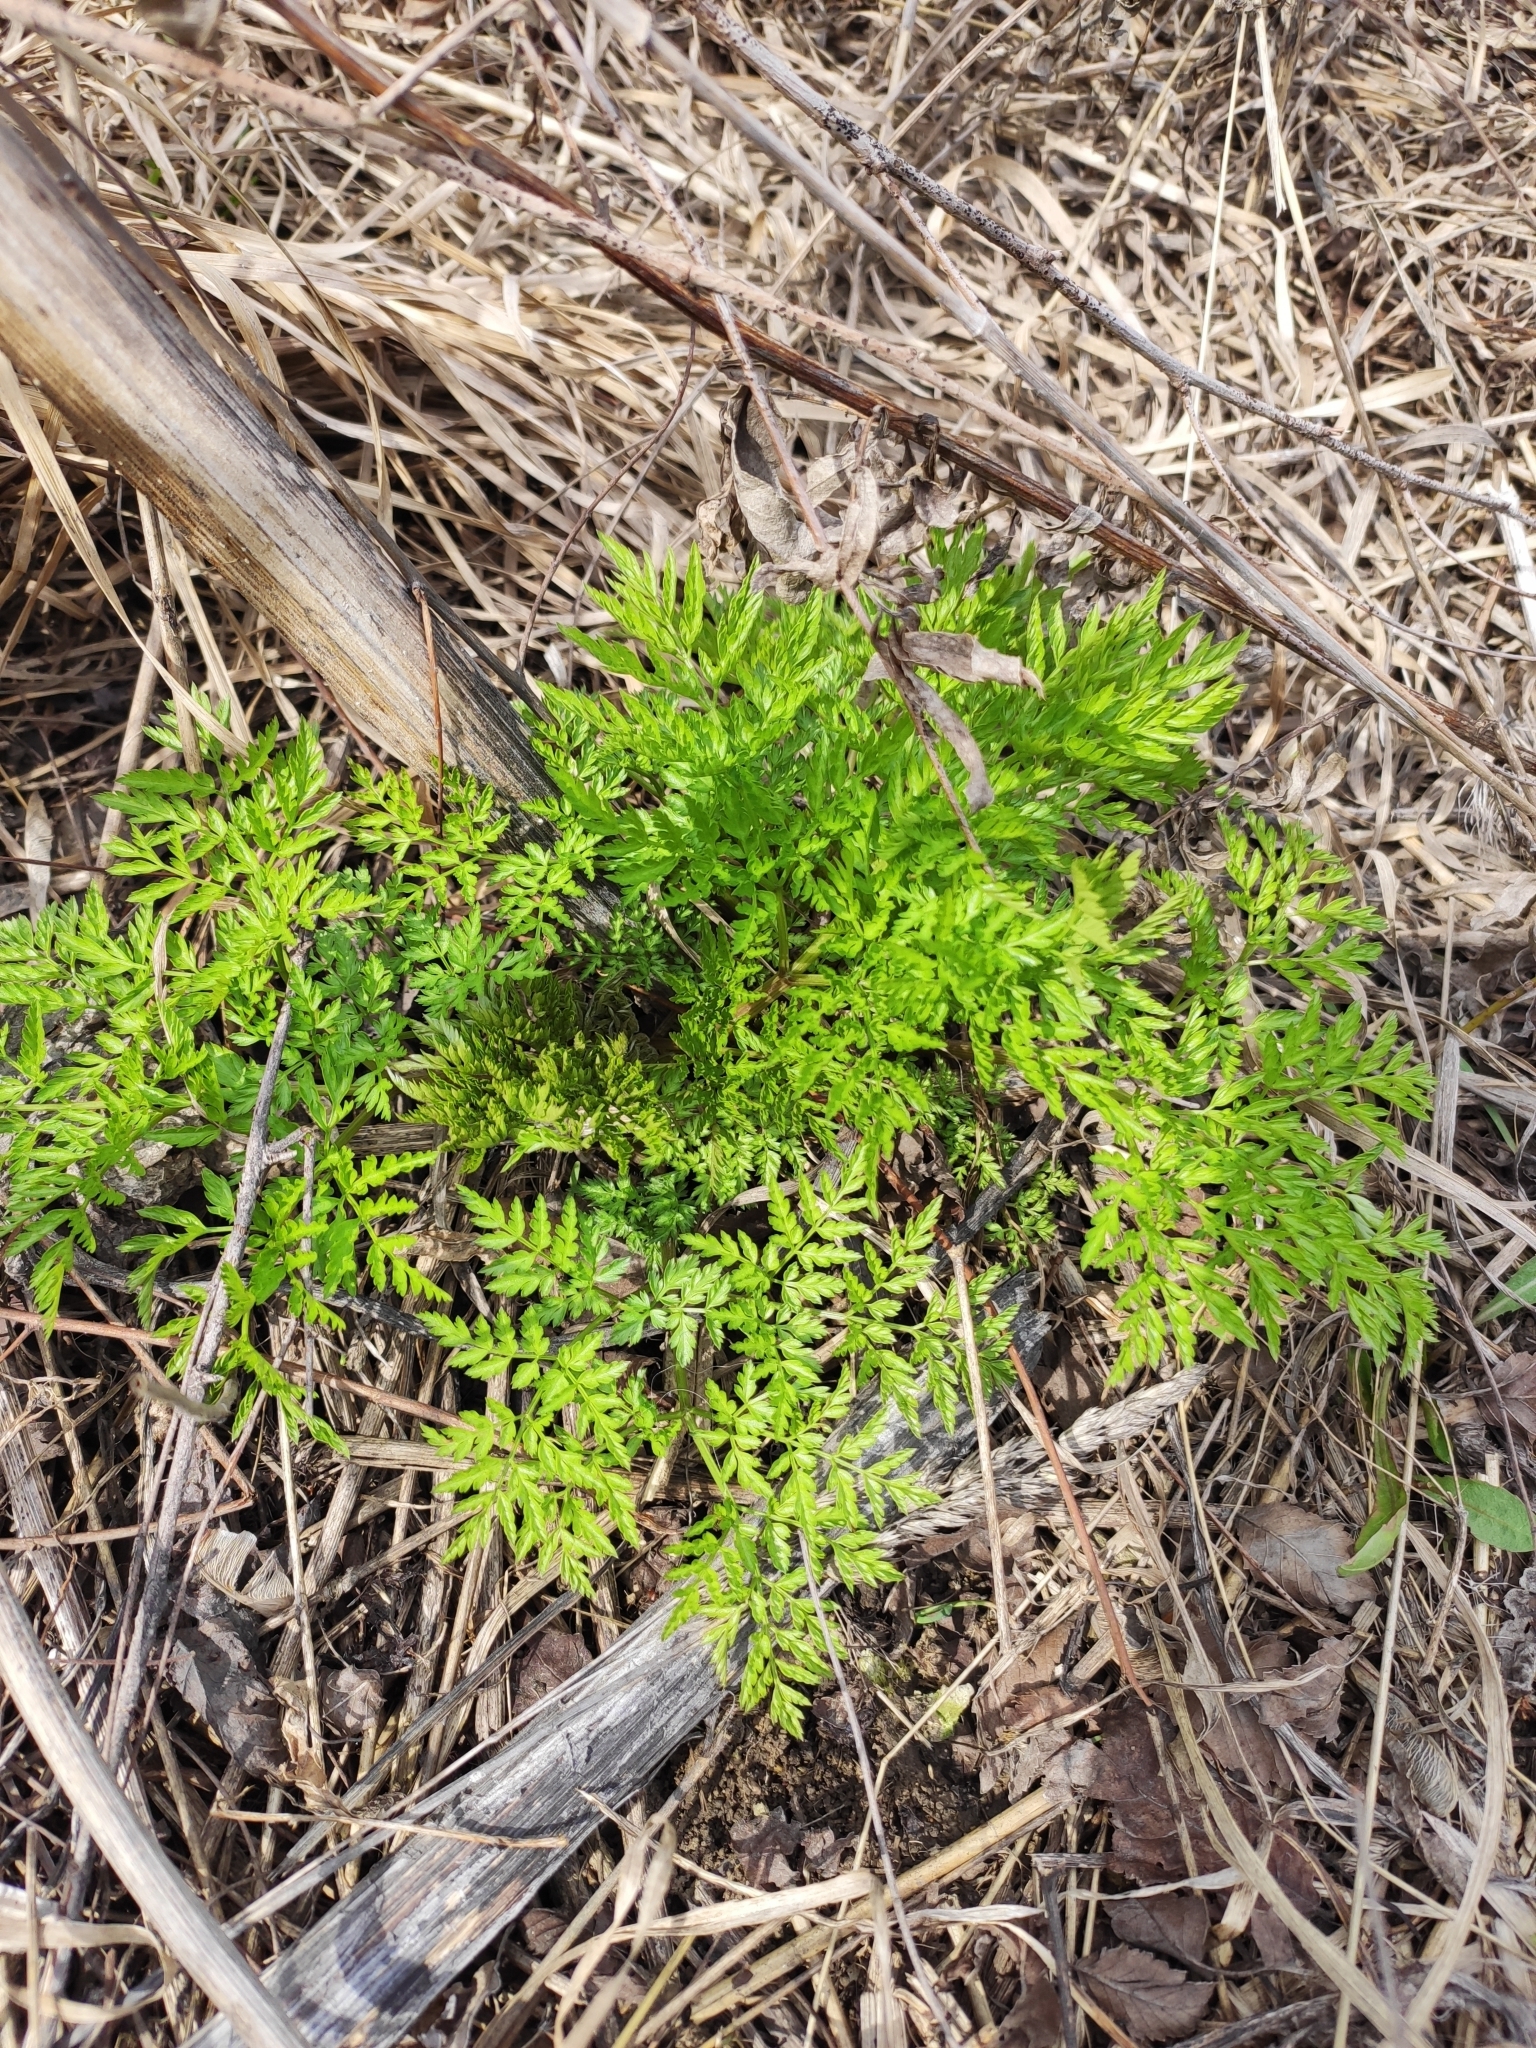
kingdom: Plantae
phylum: Tracheophyta
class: Magnoliopsida
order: Apiales
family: Apiaceae
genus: Anthriscus
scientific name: Anthriscus sylvestris
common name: Cow parsley
